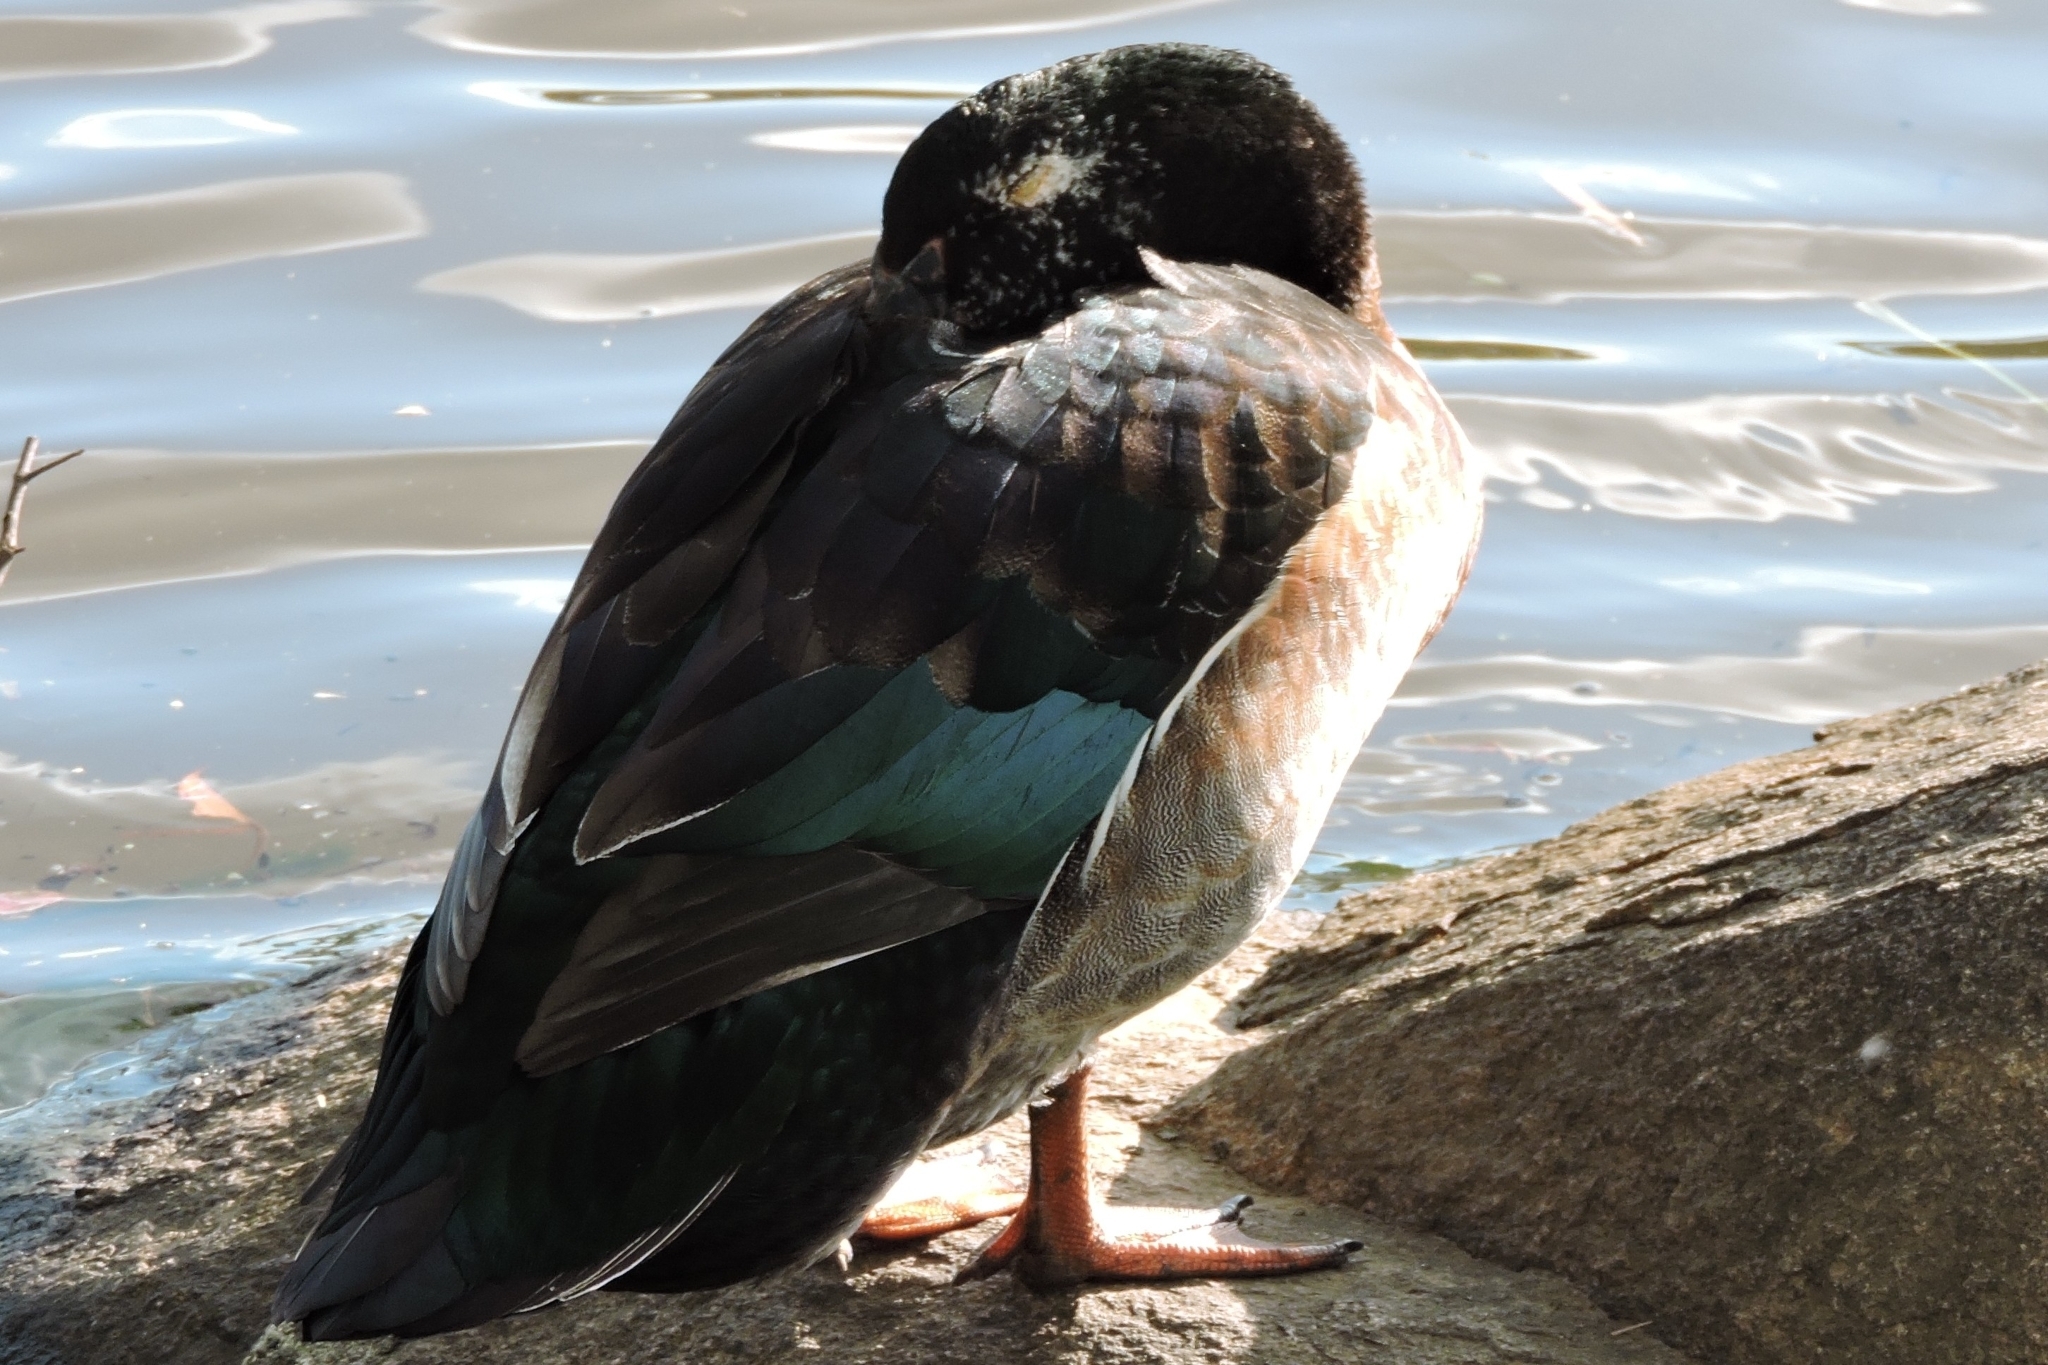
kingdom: Animalia
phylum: Chordata
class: Aves
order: Anseriformes
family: Anatidae
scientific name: Anatidae
